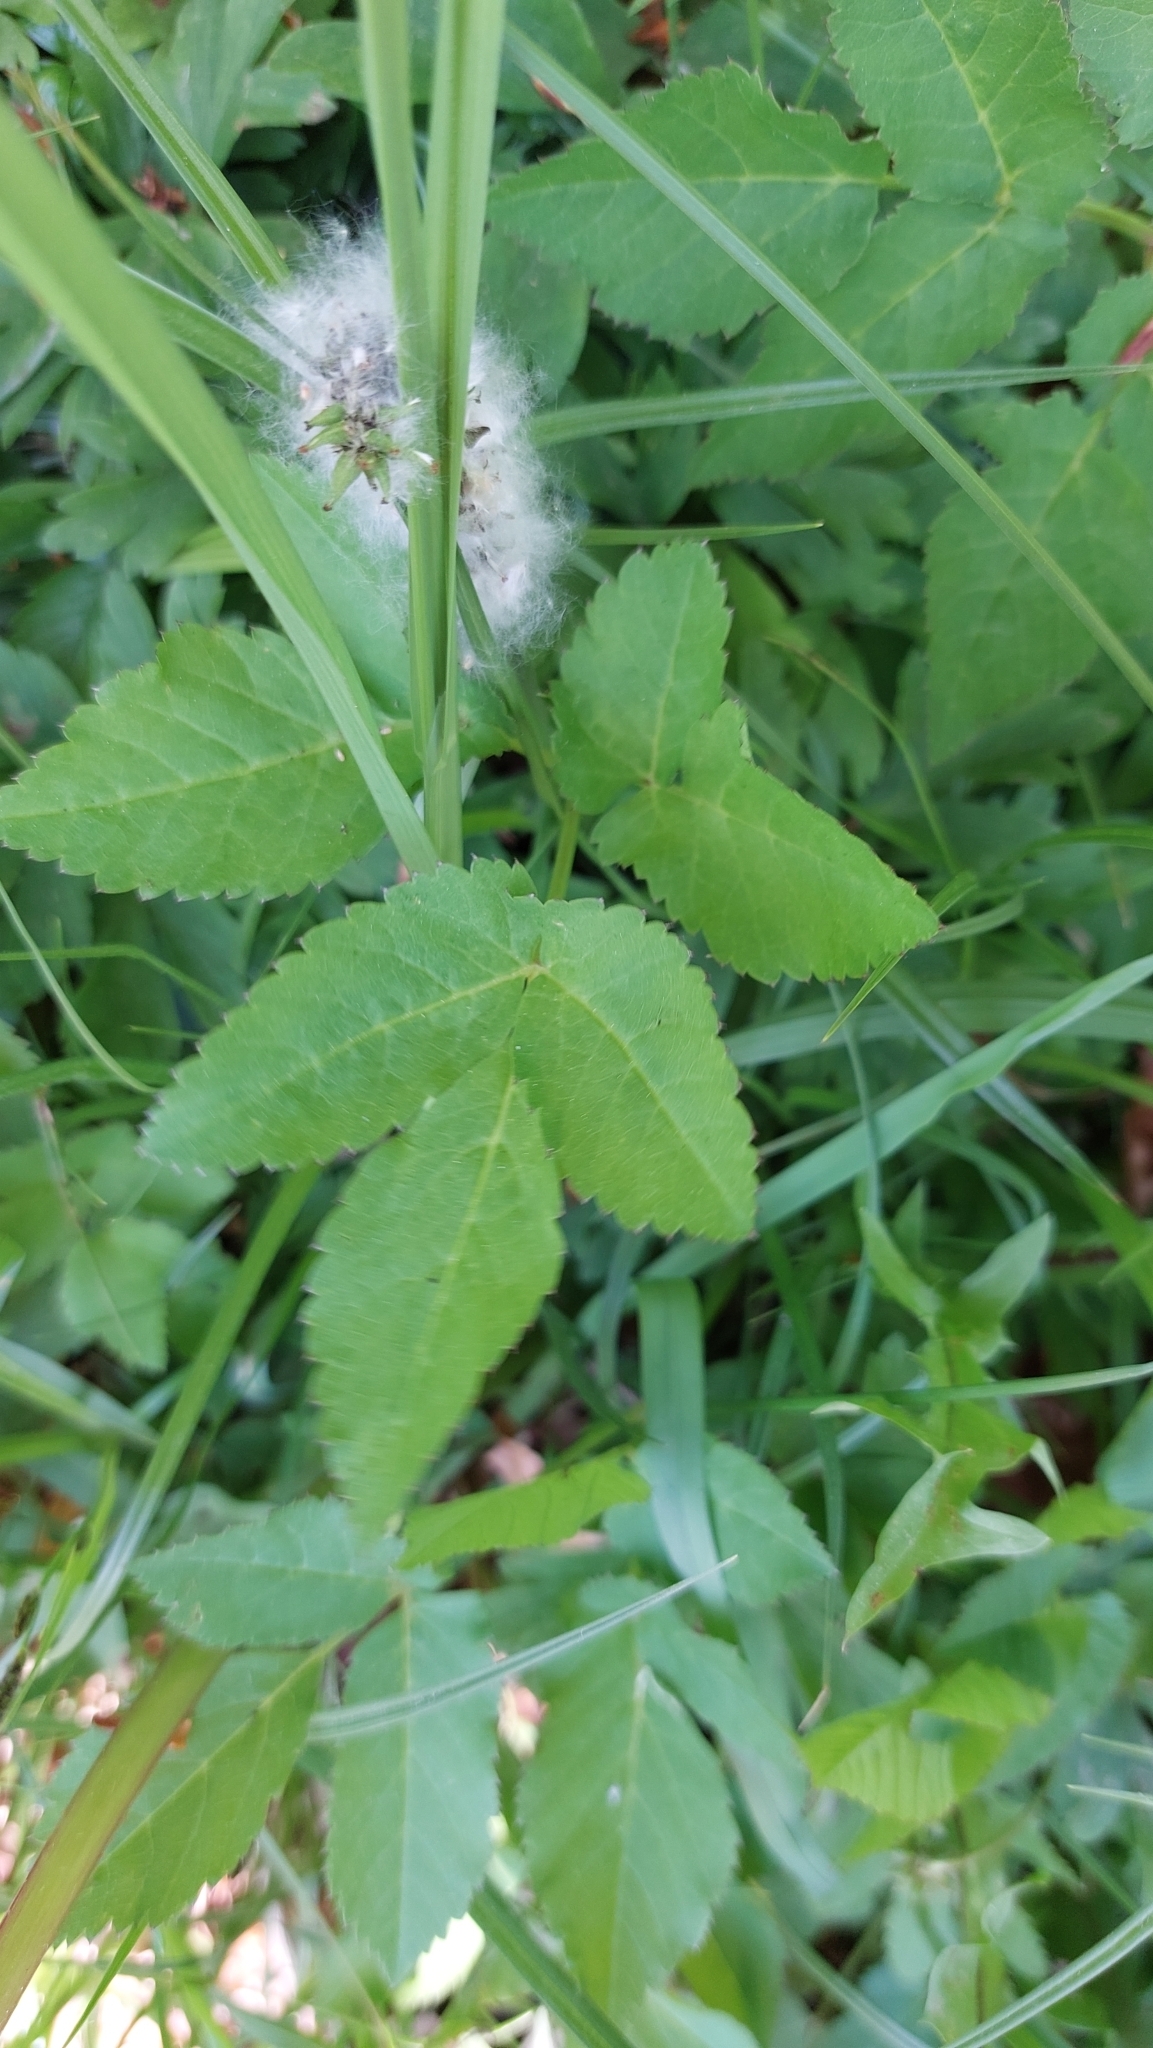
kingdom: Plantae
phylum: Tracheophyta
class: Magnoliopsida
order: Apiales
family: Apiaceae
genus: Aegopodium
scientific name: Aegopodium podagraria
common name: Ground-elder
